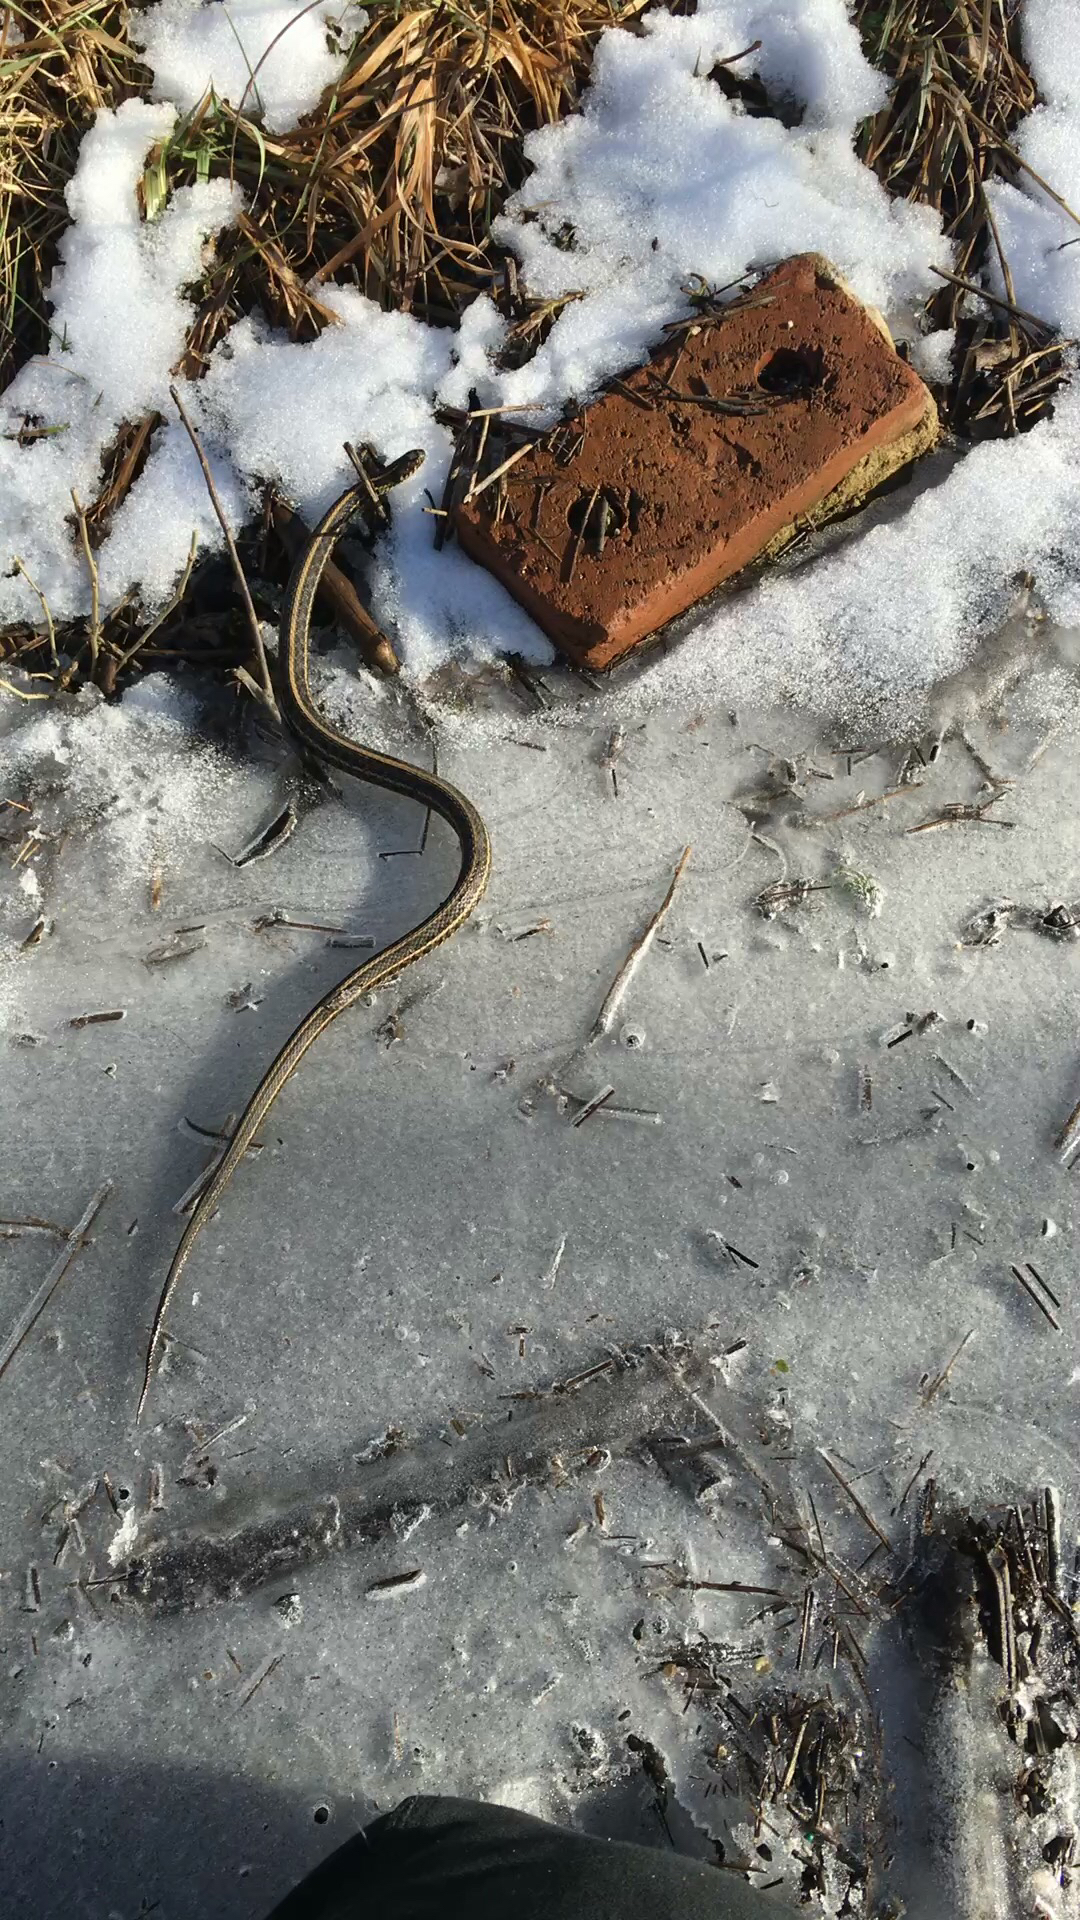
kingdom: Animalia
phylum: Chordata
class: Squamata
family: Colubridae
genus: Thamnophis
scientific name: Thamnophis radix
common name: Plains garter snake
